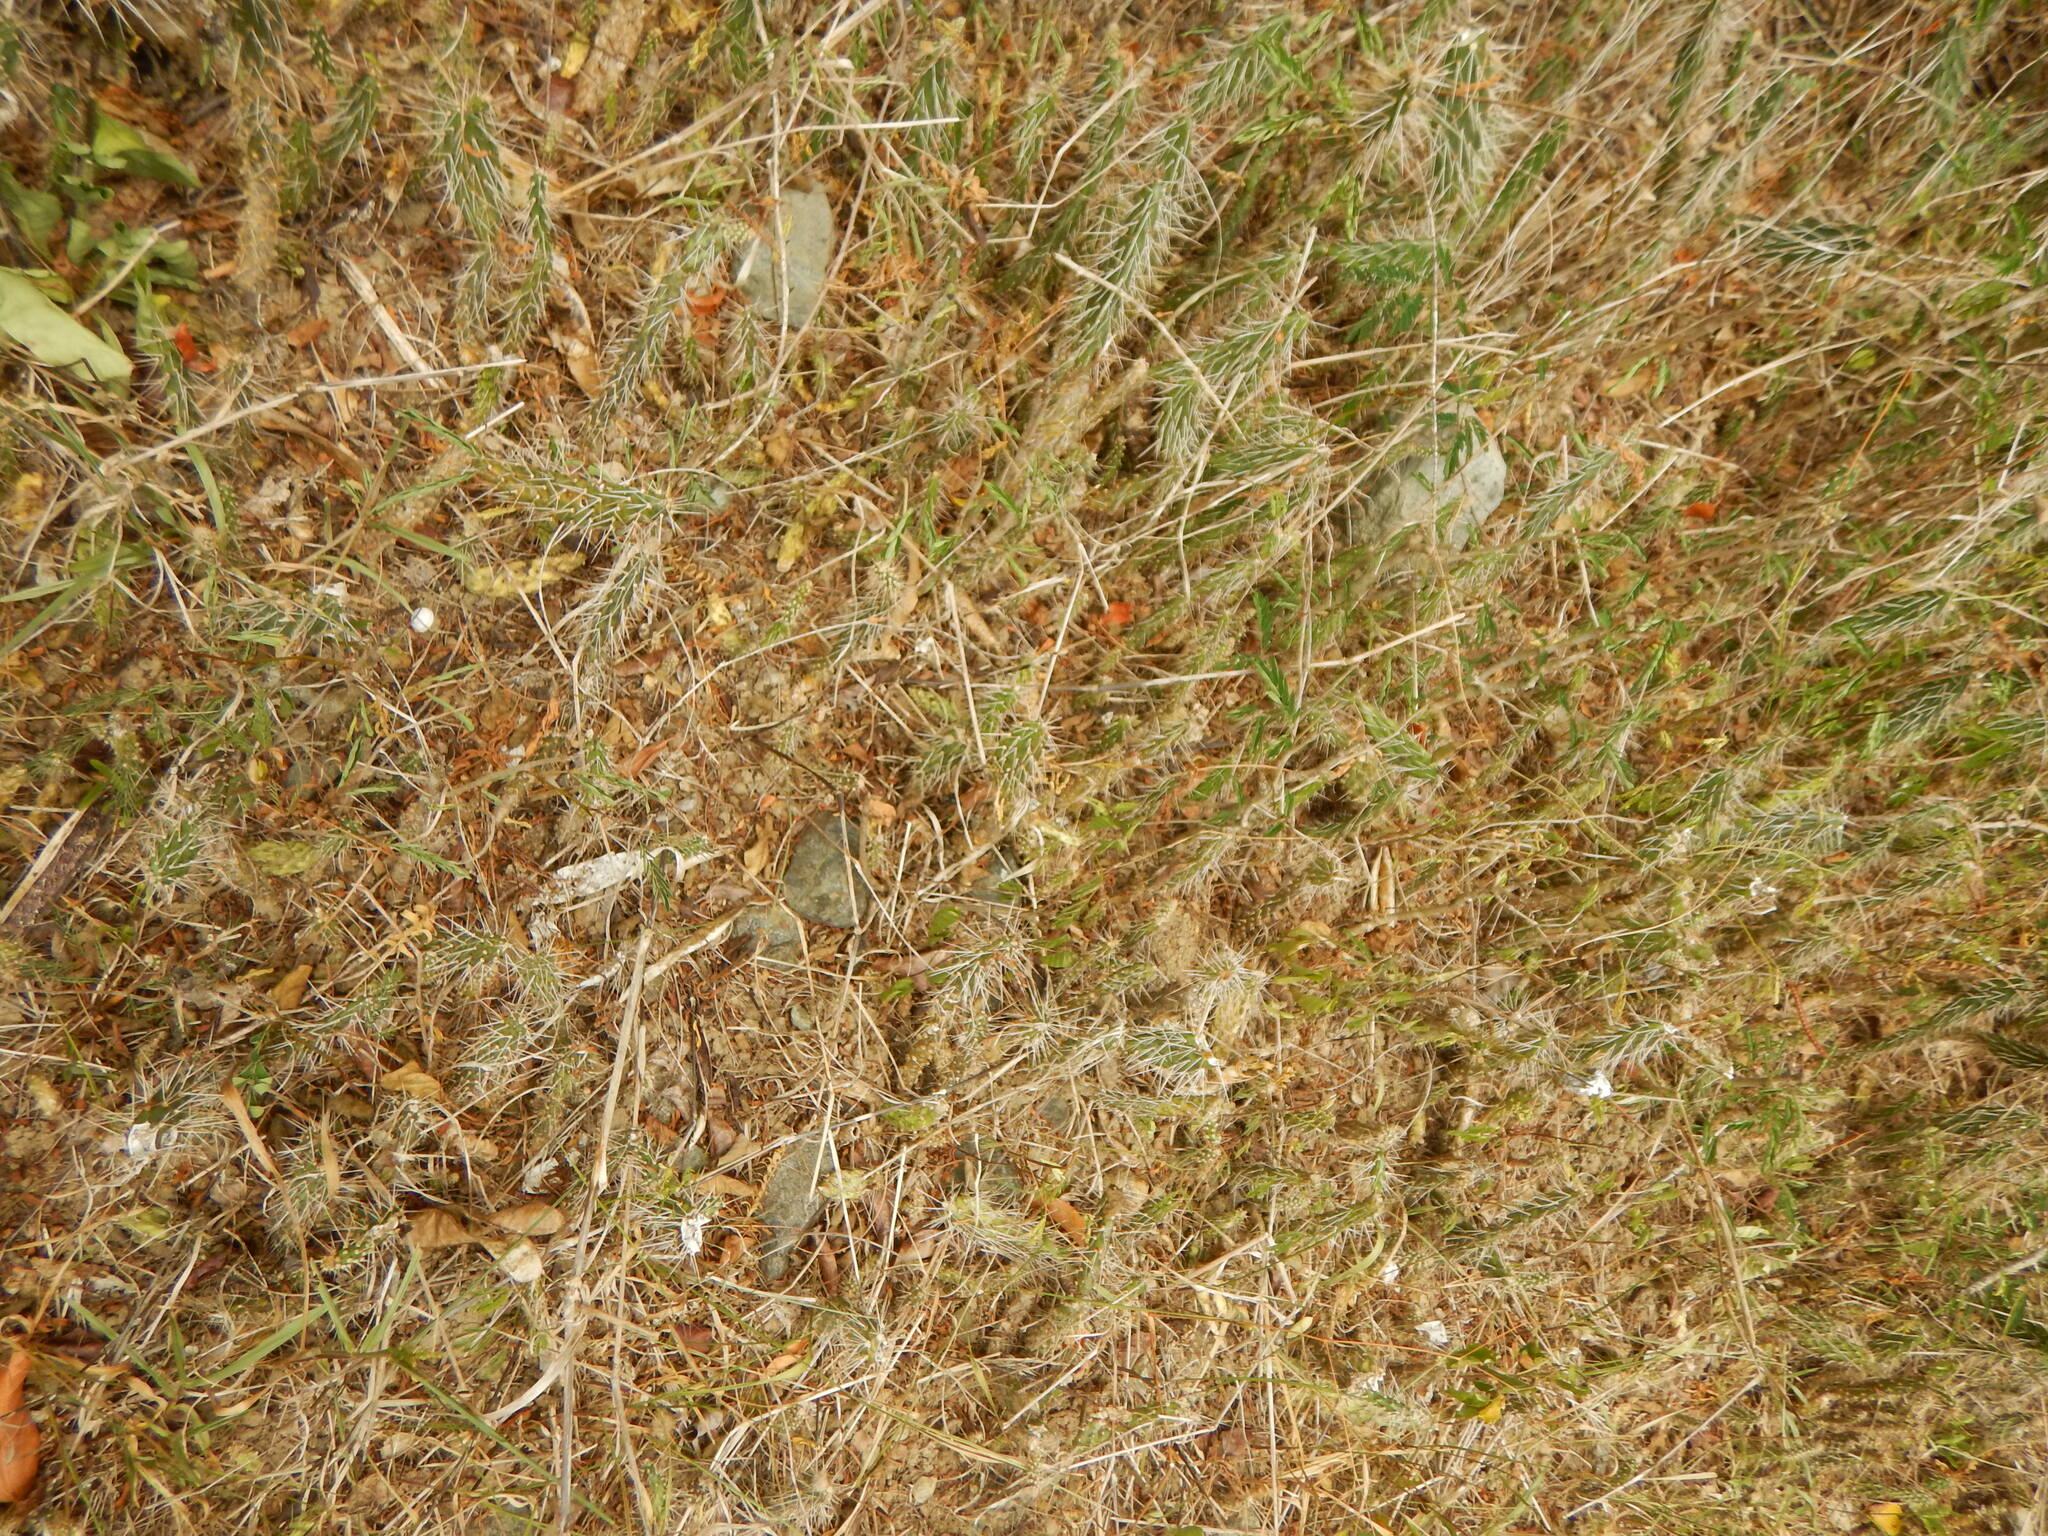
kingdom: Plantae
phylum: Tracheophyta
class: Magnoliopsida
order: Caryophyllales
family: Cactaceae
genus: Opuntia
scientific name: Opuntia repens
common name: Roving pricklypear
